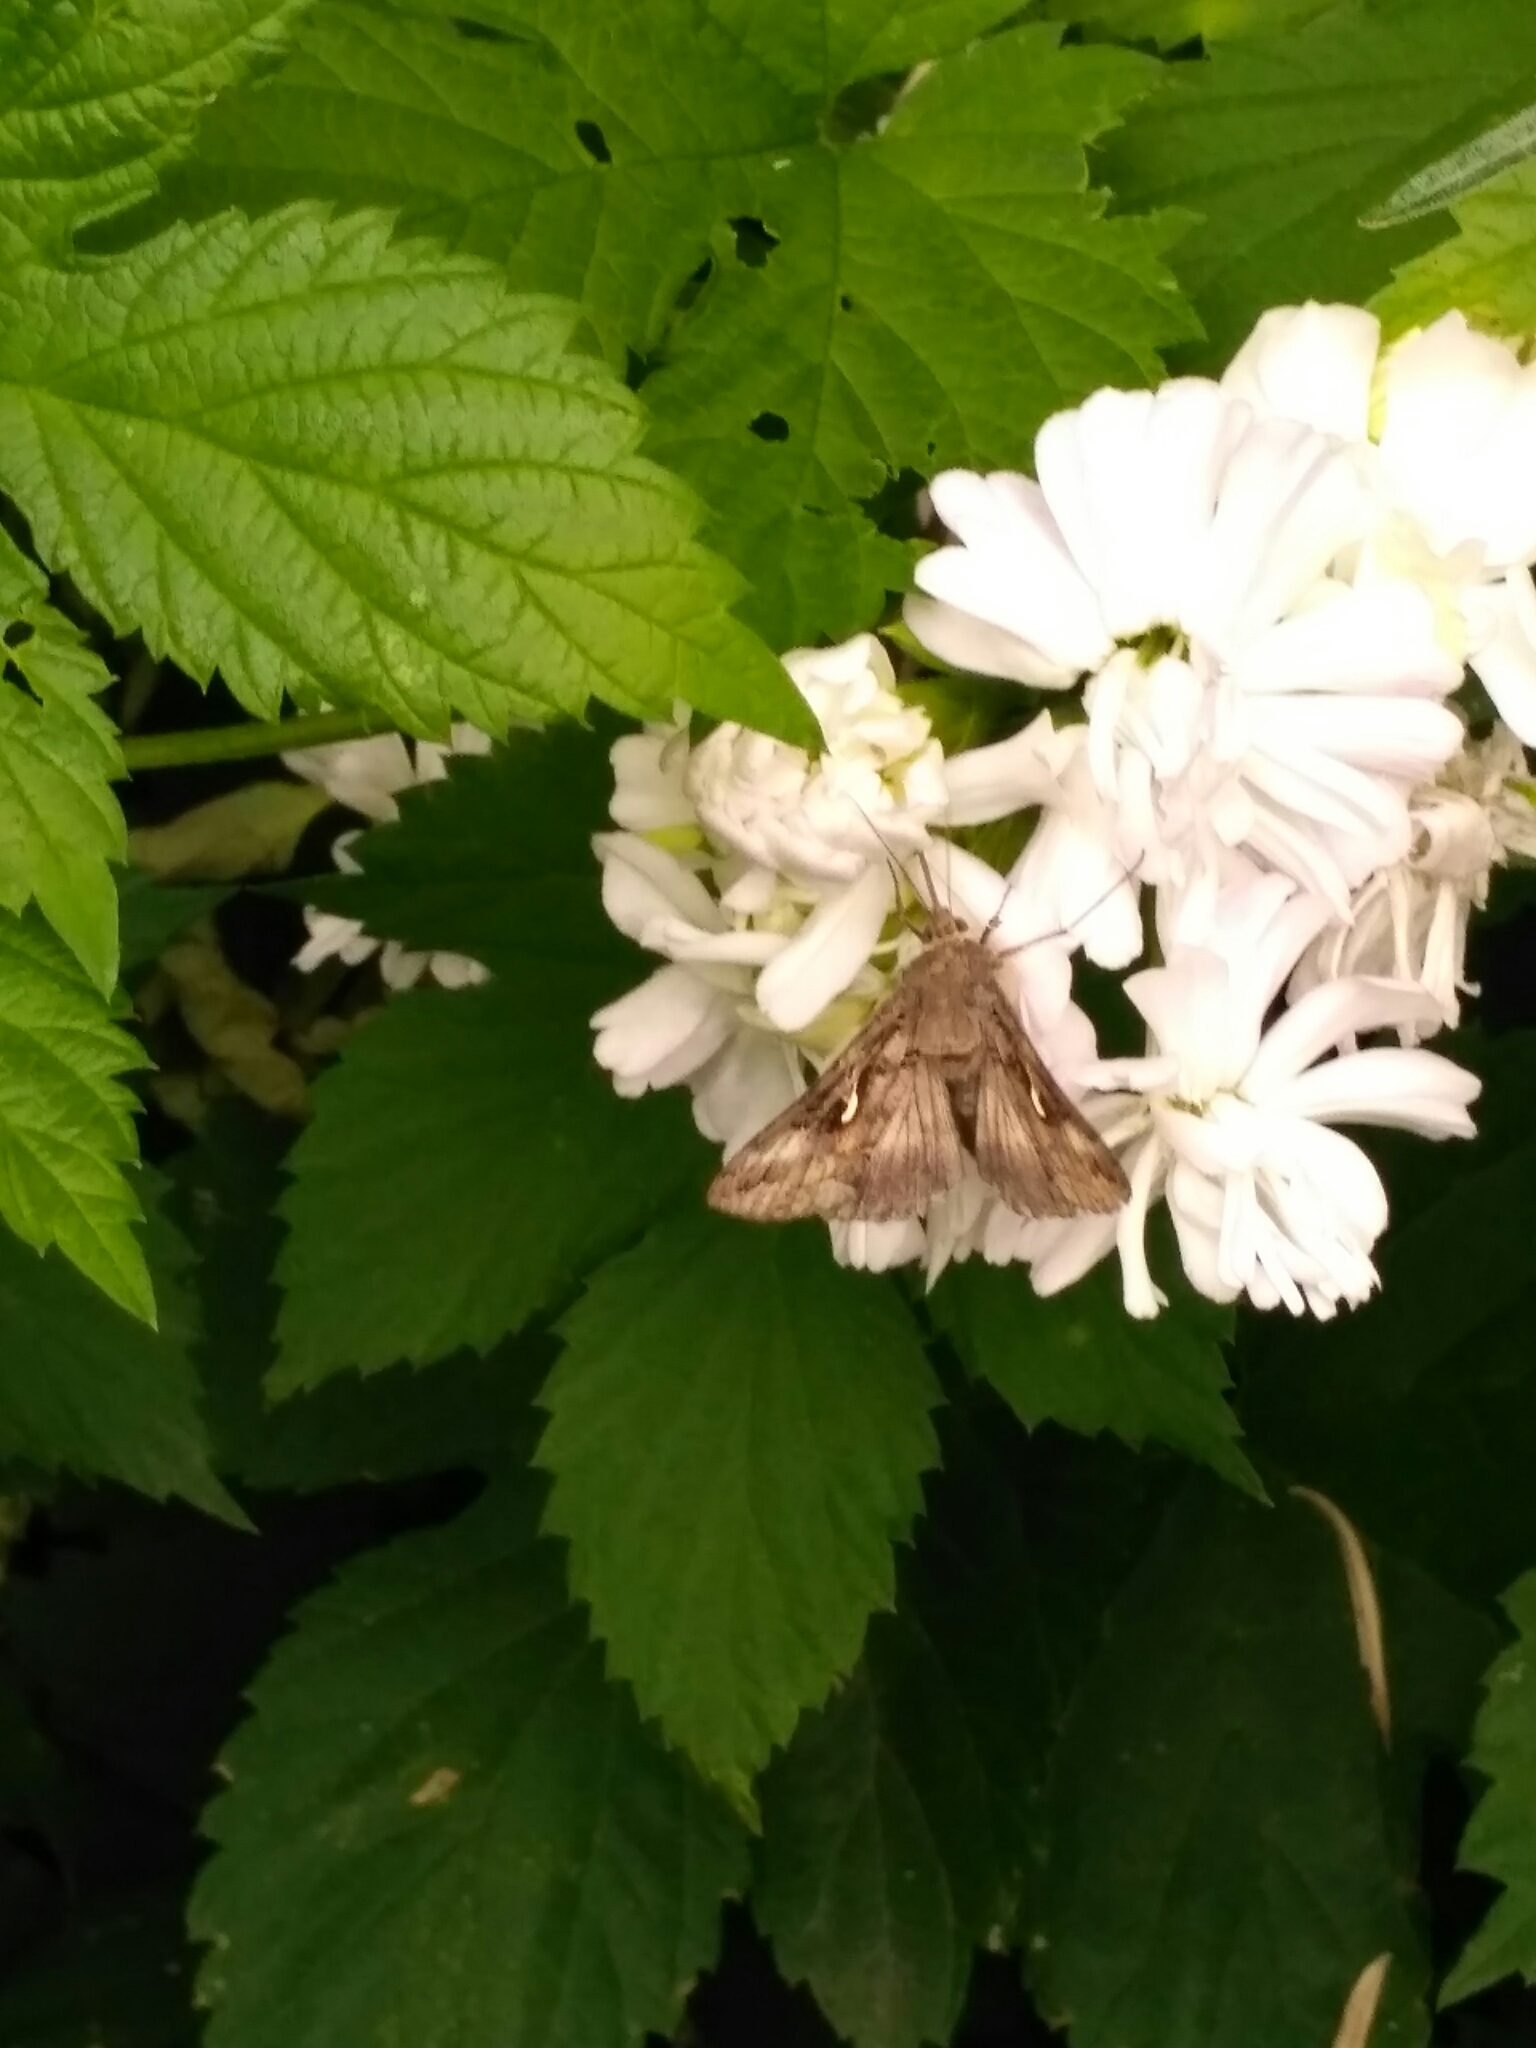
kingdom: Animalia
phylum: Arthropoda
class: Insecta
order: Lepidoptera
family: Noctuidae
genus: Autographa
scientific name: Autographa gamma
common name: Silver y
